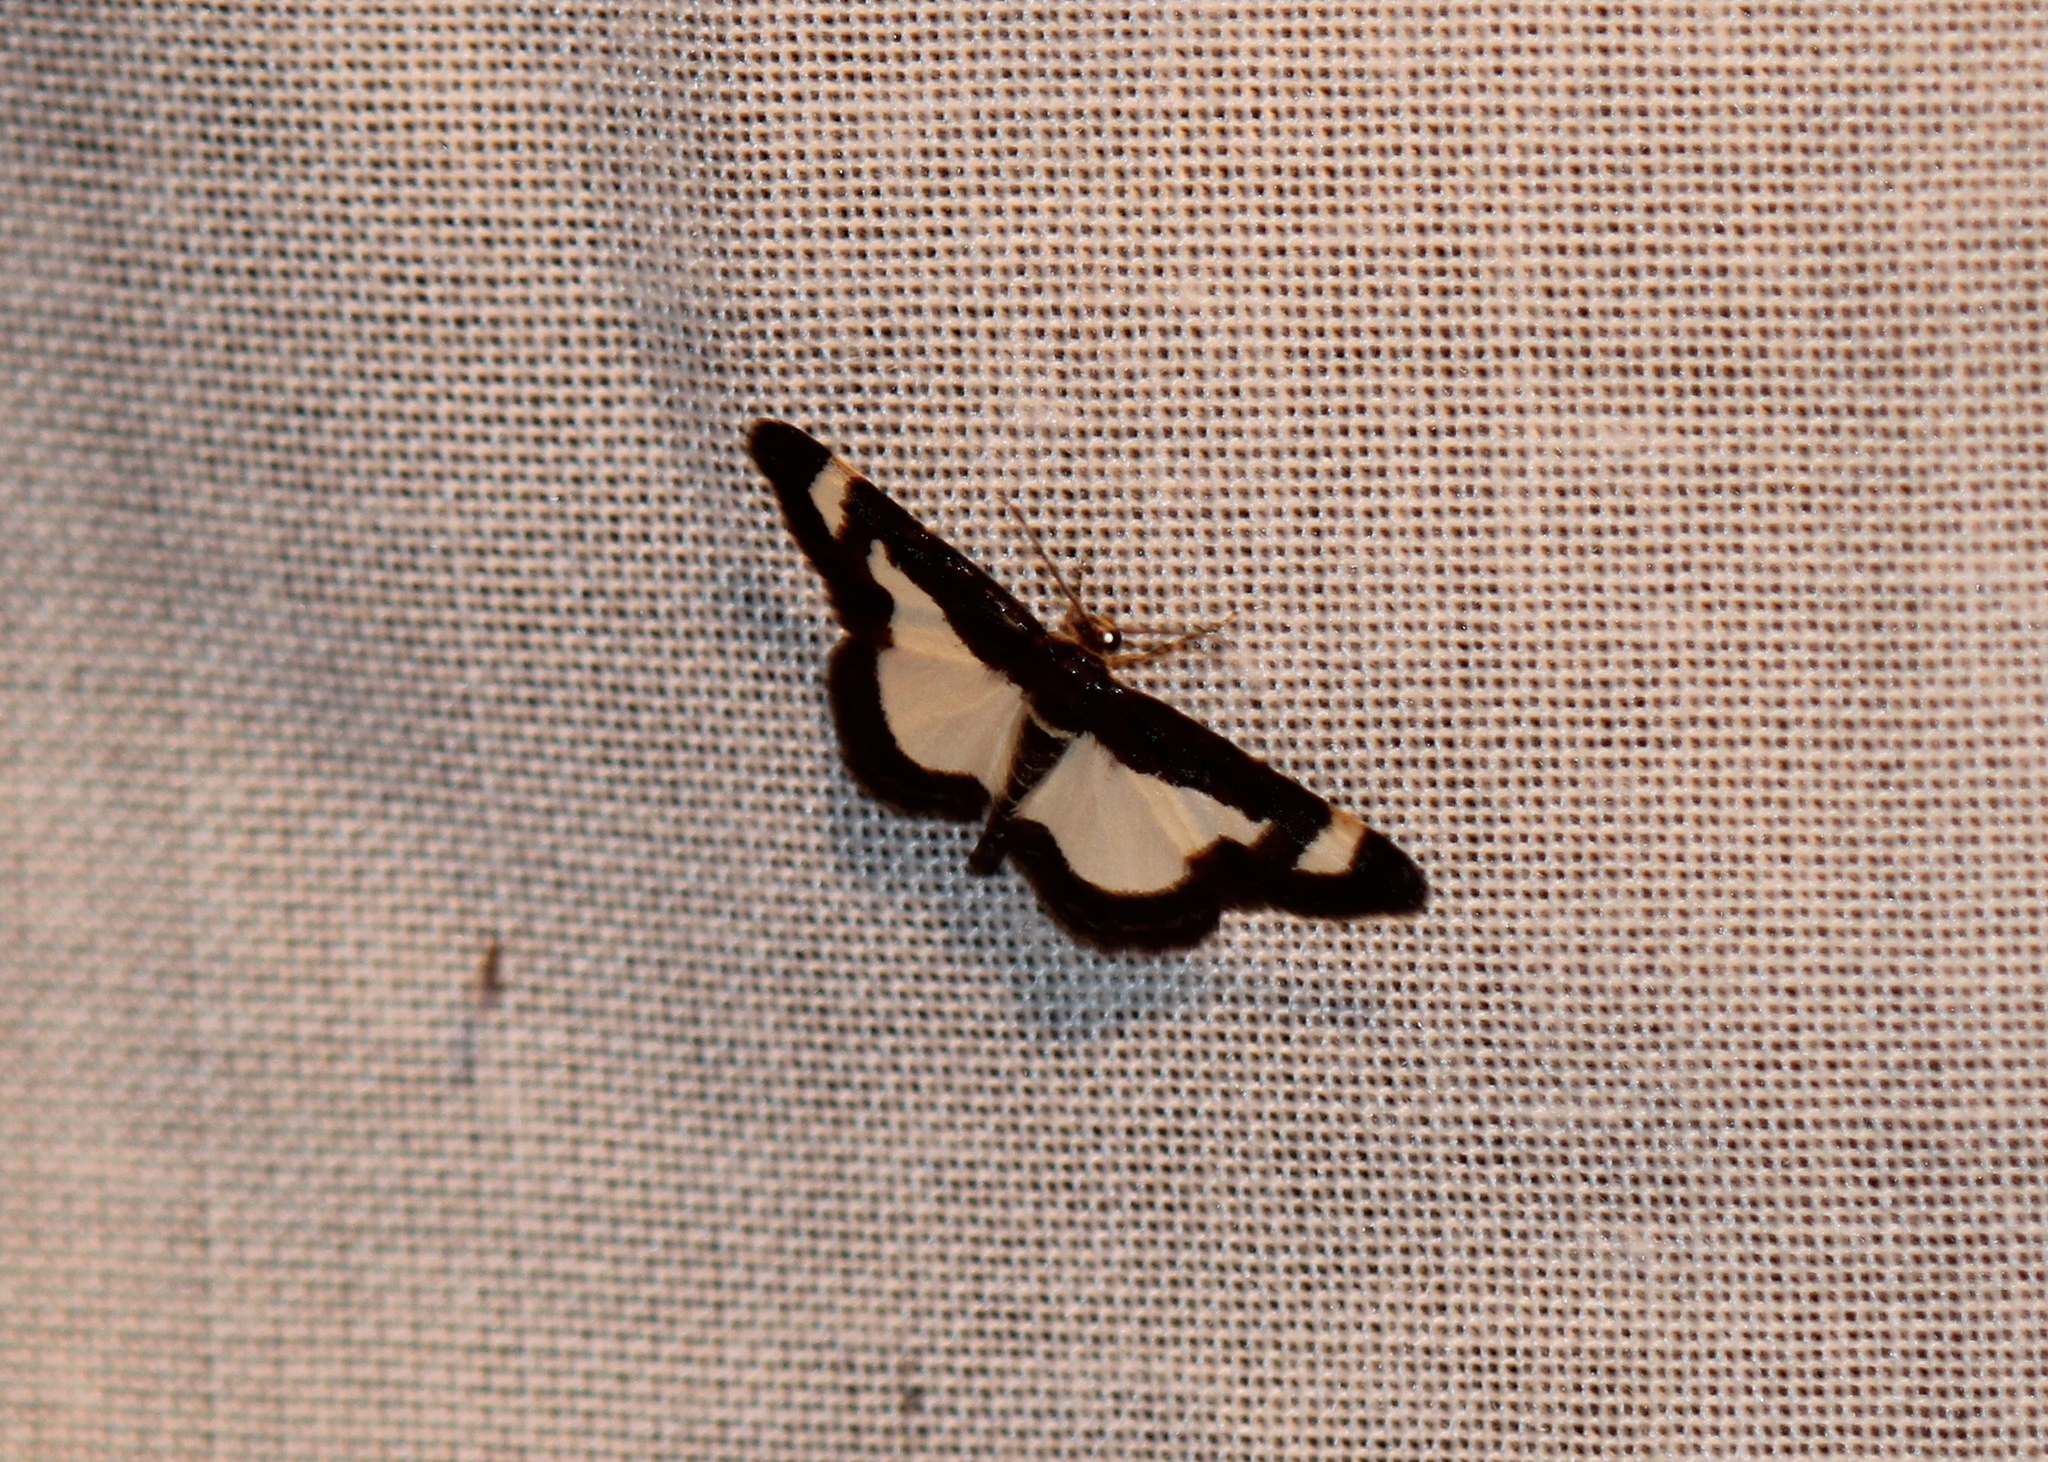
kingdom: Animalia
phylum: Arthropoda
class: Insecta
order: Lepidoptera
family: Geometridae
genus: Heliomata
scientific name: Heliomata cycladata
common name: Common spring moth
